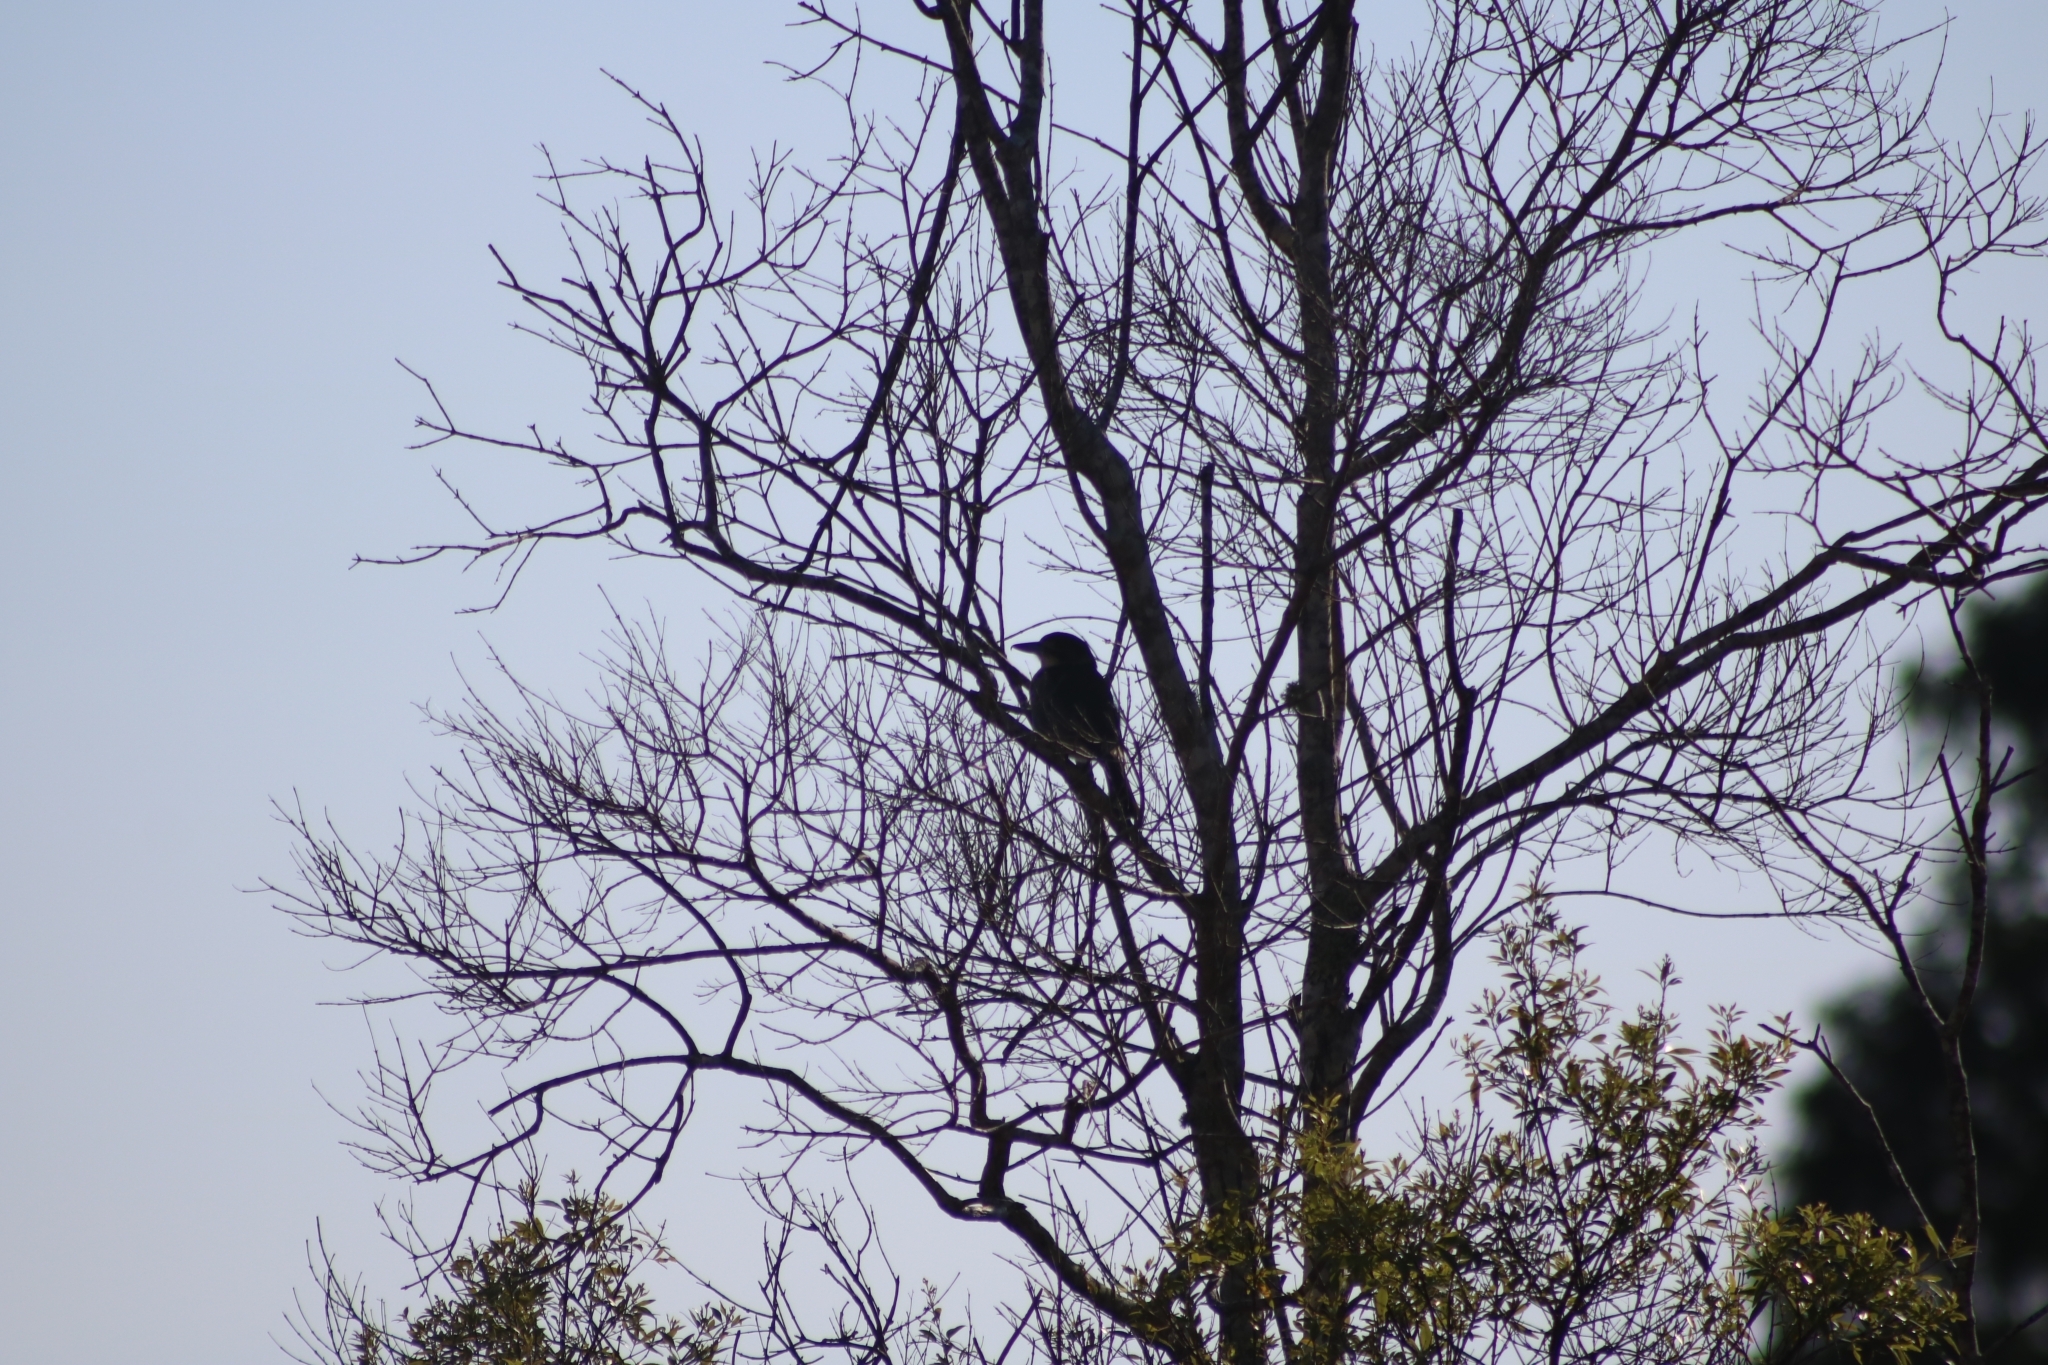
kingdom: Animalia
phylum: Chordata
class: Aves
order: Passeriformes
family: Cracticidae
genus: Cracticus
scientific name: Cracticus torquatus
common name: Grey butcherbird
